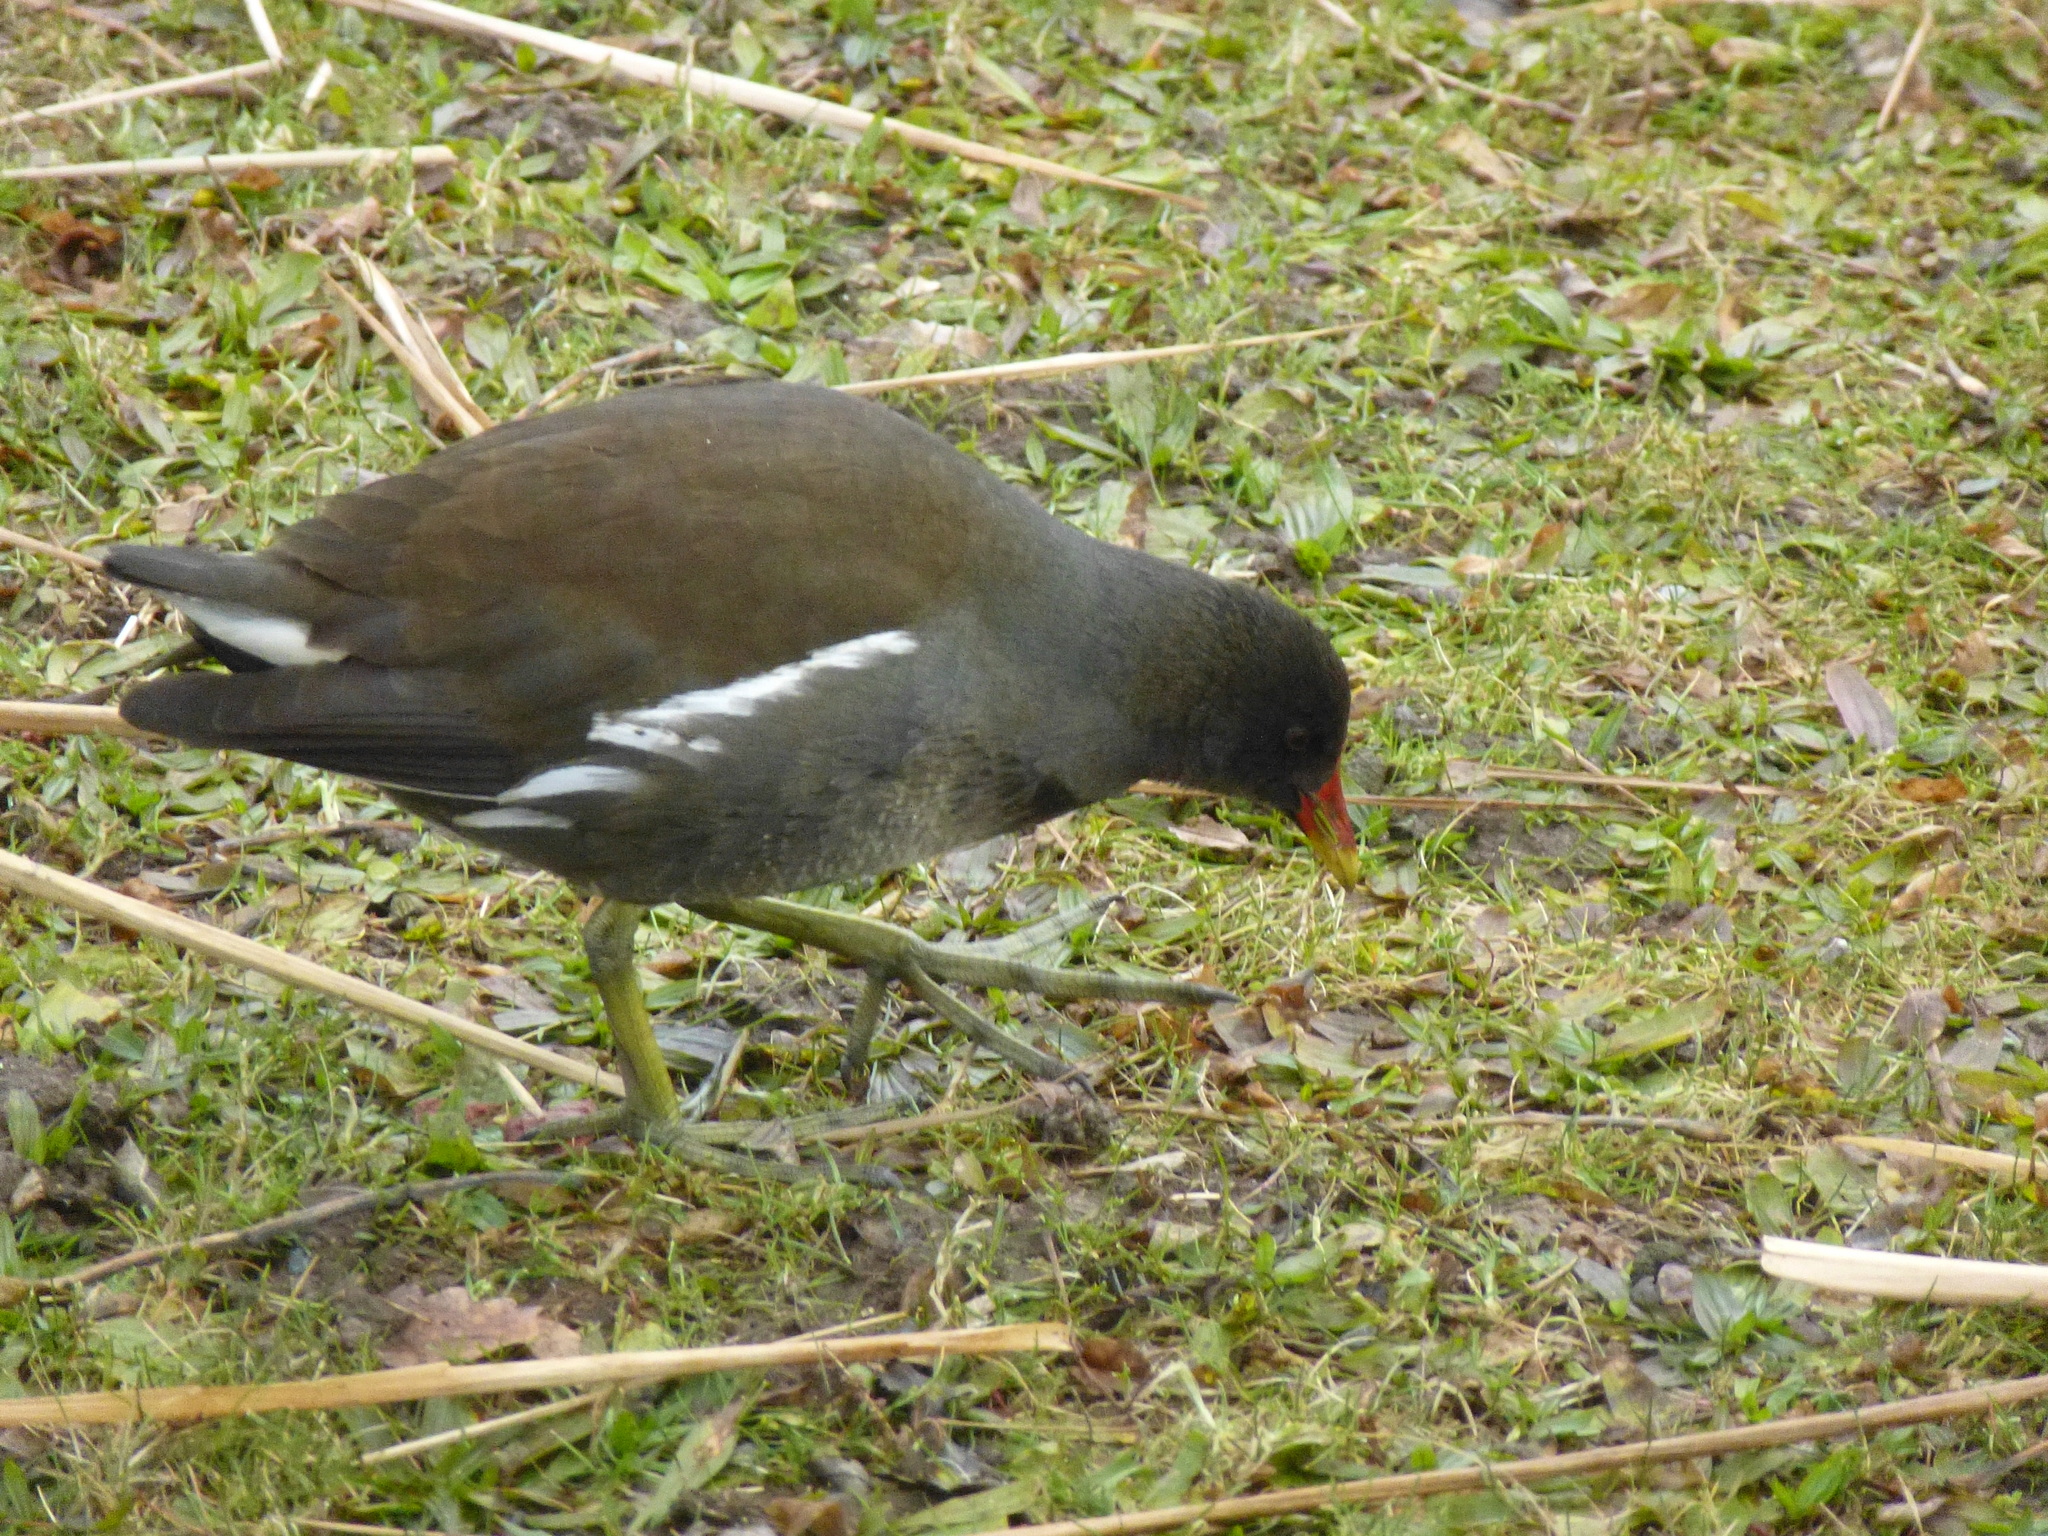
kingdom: Animalia
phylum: Chordata
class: Aves
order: Gruiformes
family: Rallidae
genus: Gallinula
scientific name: Gallinula chloropus
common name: Common moorhen
